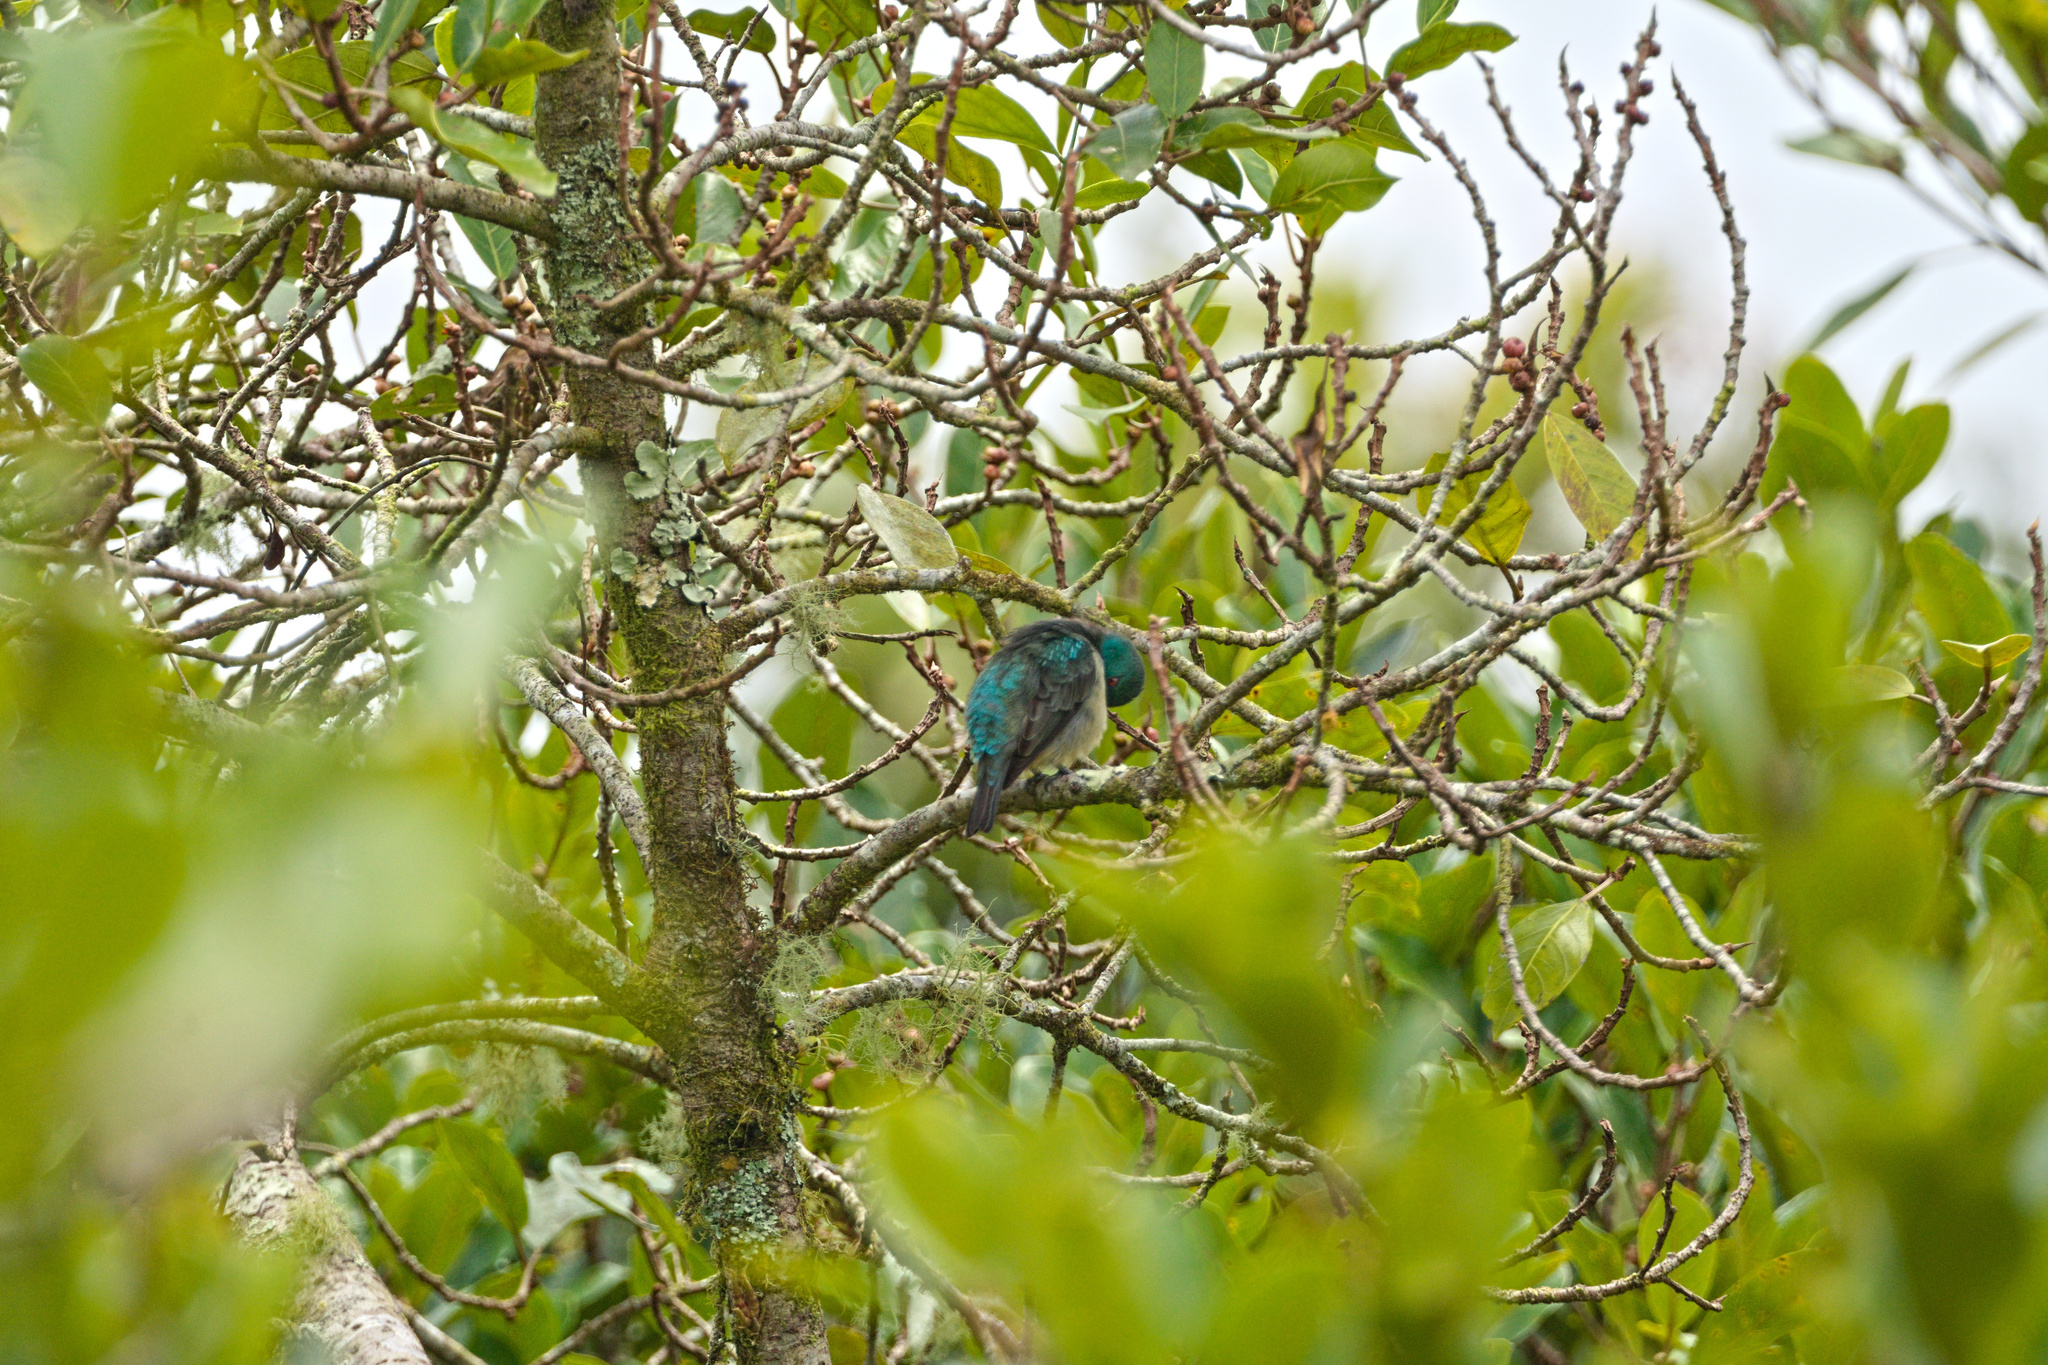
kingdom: Animalia
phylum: Chordata
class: Aves
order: Passeriformes
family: Thraupidae
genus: Dacnis
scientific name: Dacnis venusta
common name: Scarlet-thighed dacnis
